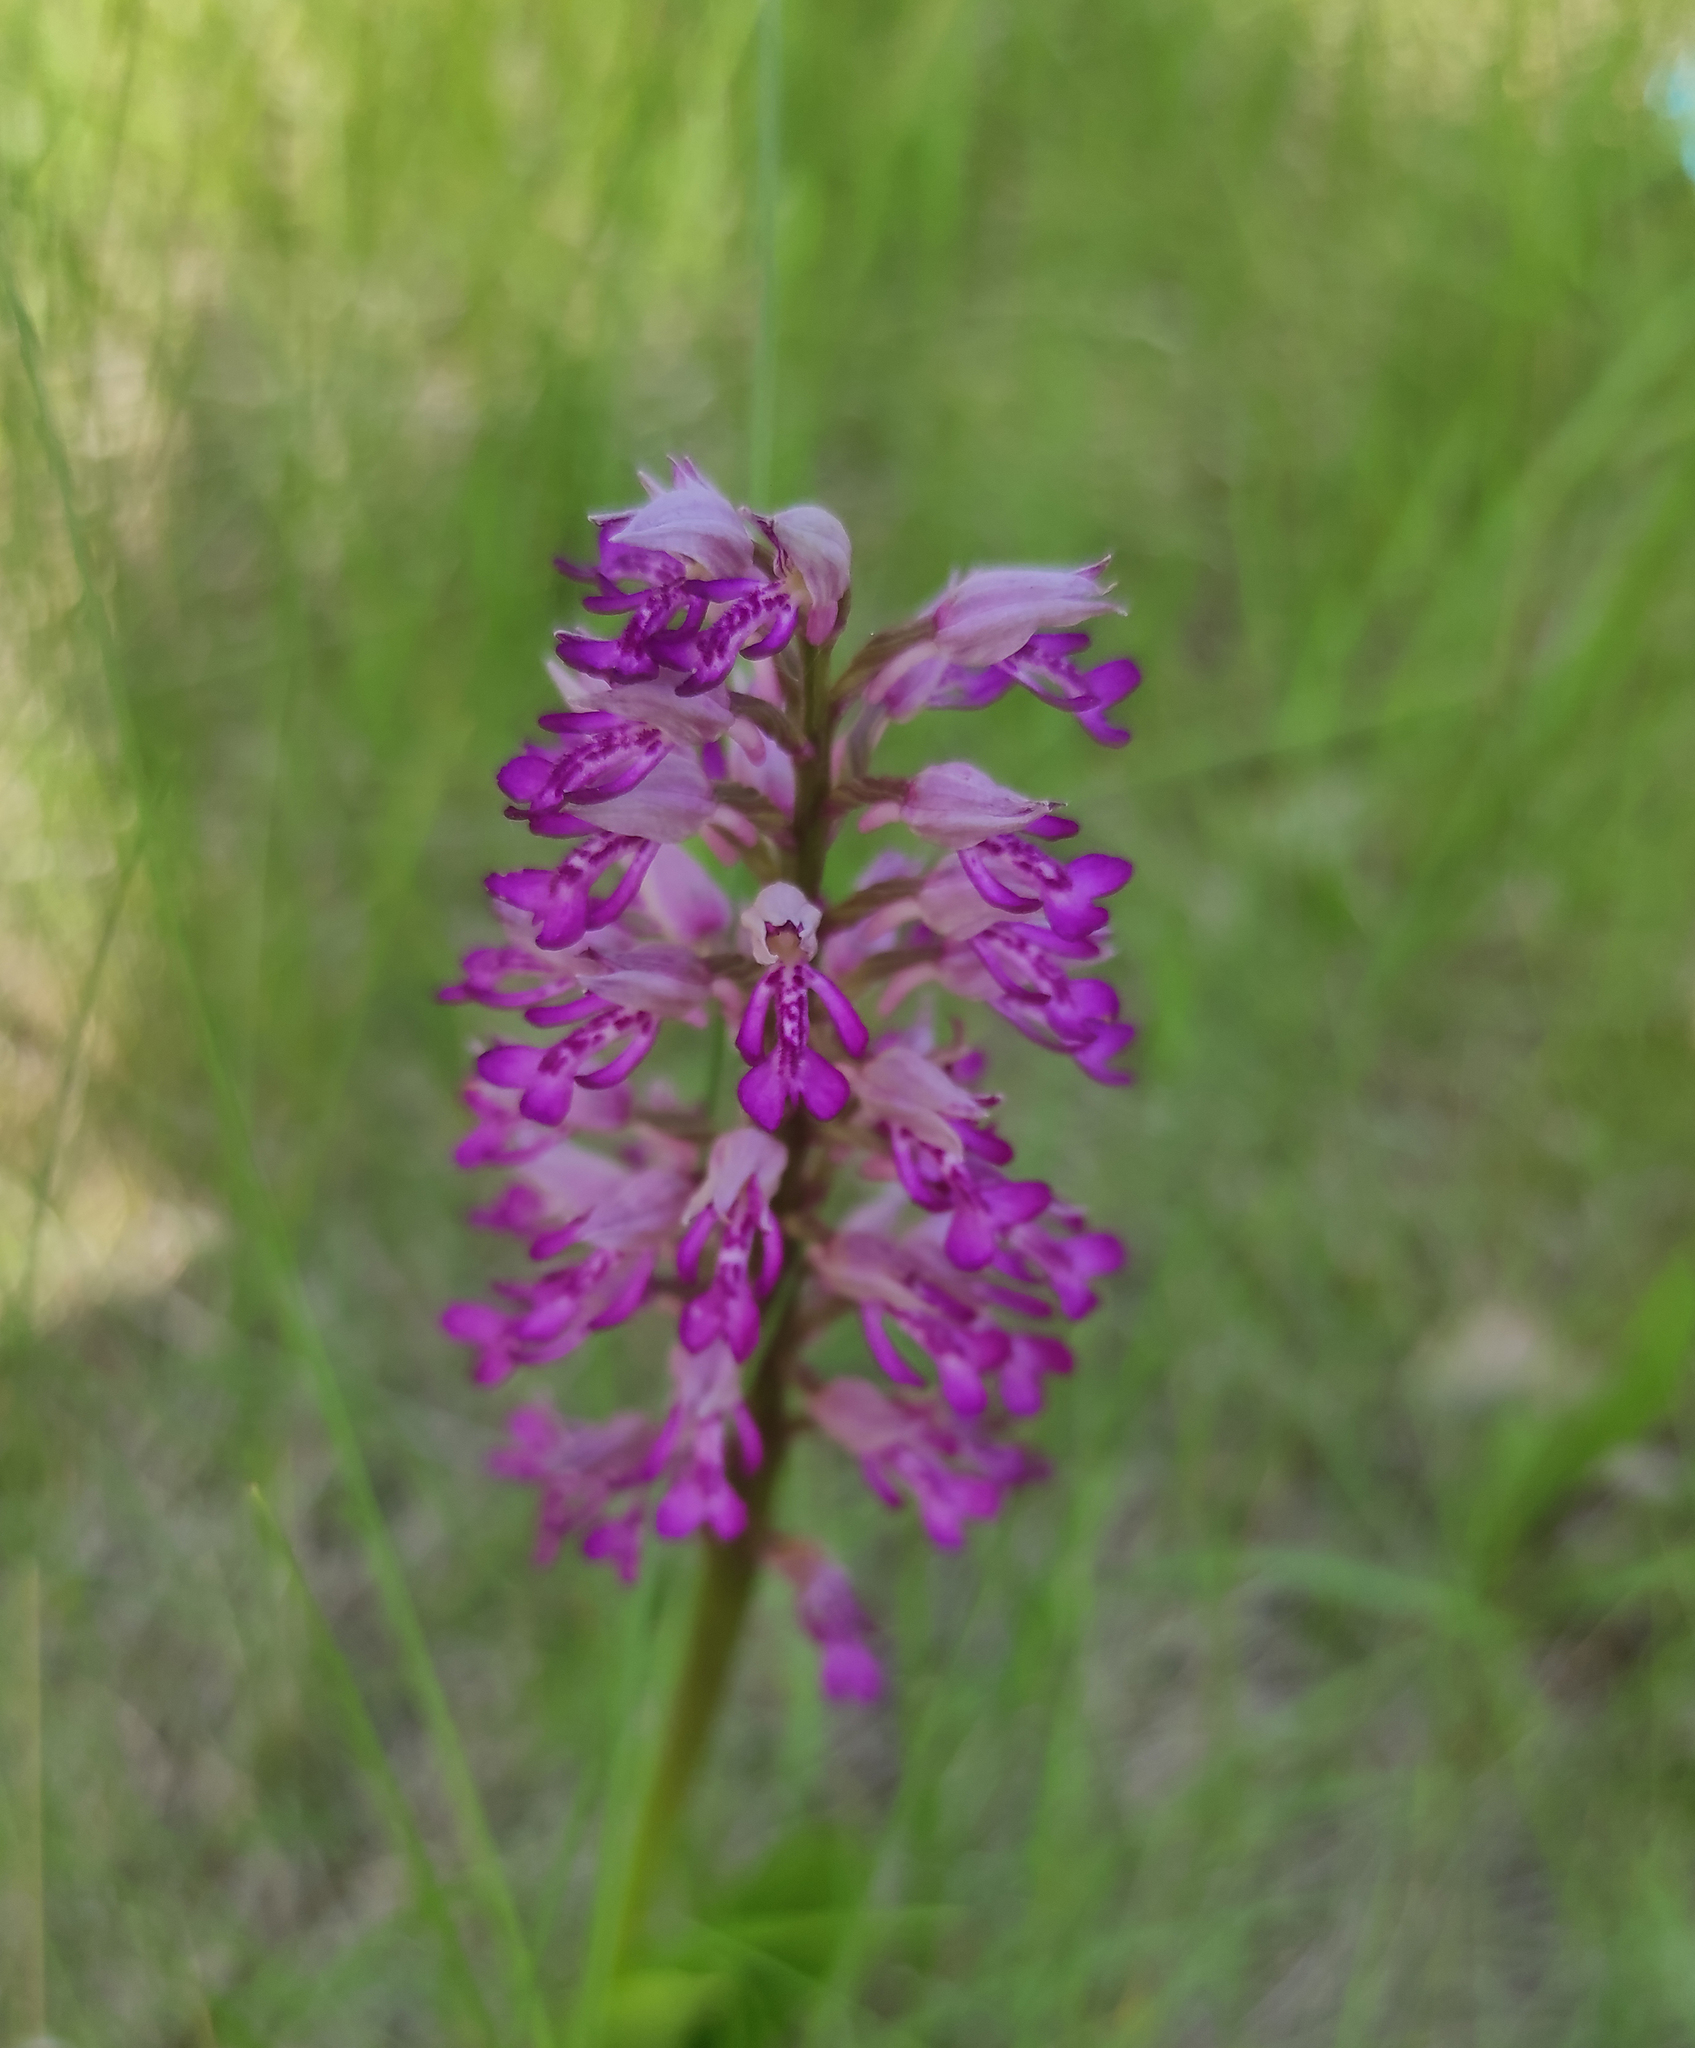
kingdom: Plantae
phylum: Tracheophyta
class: Liliopsida
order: Asparagales
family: Orchidaceae
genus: Orchis
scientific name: Orchis militaris
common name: Military orchid
